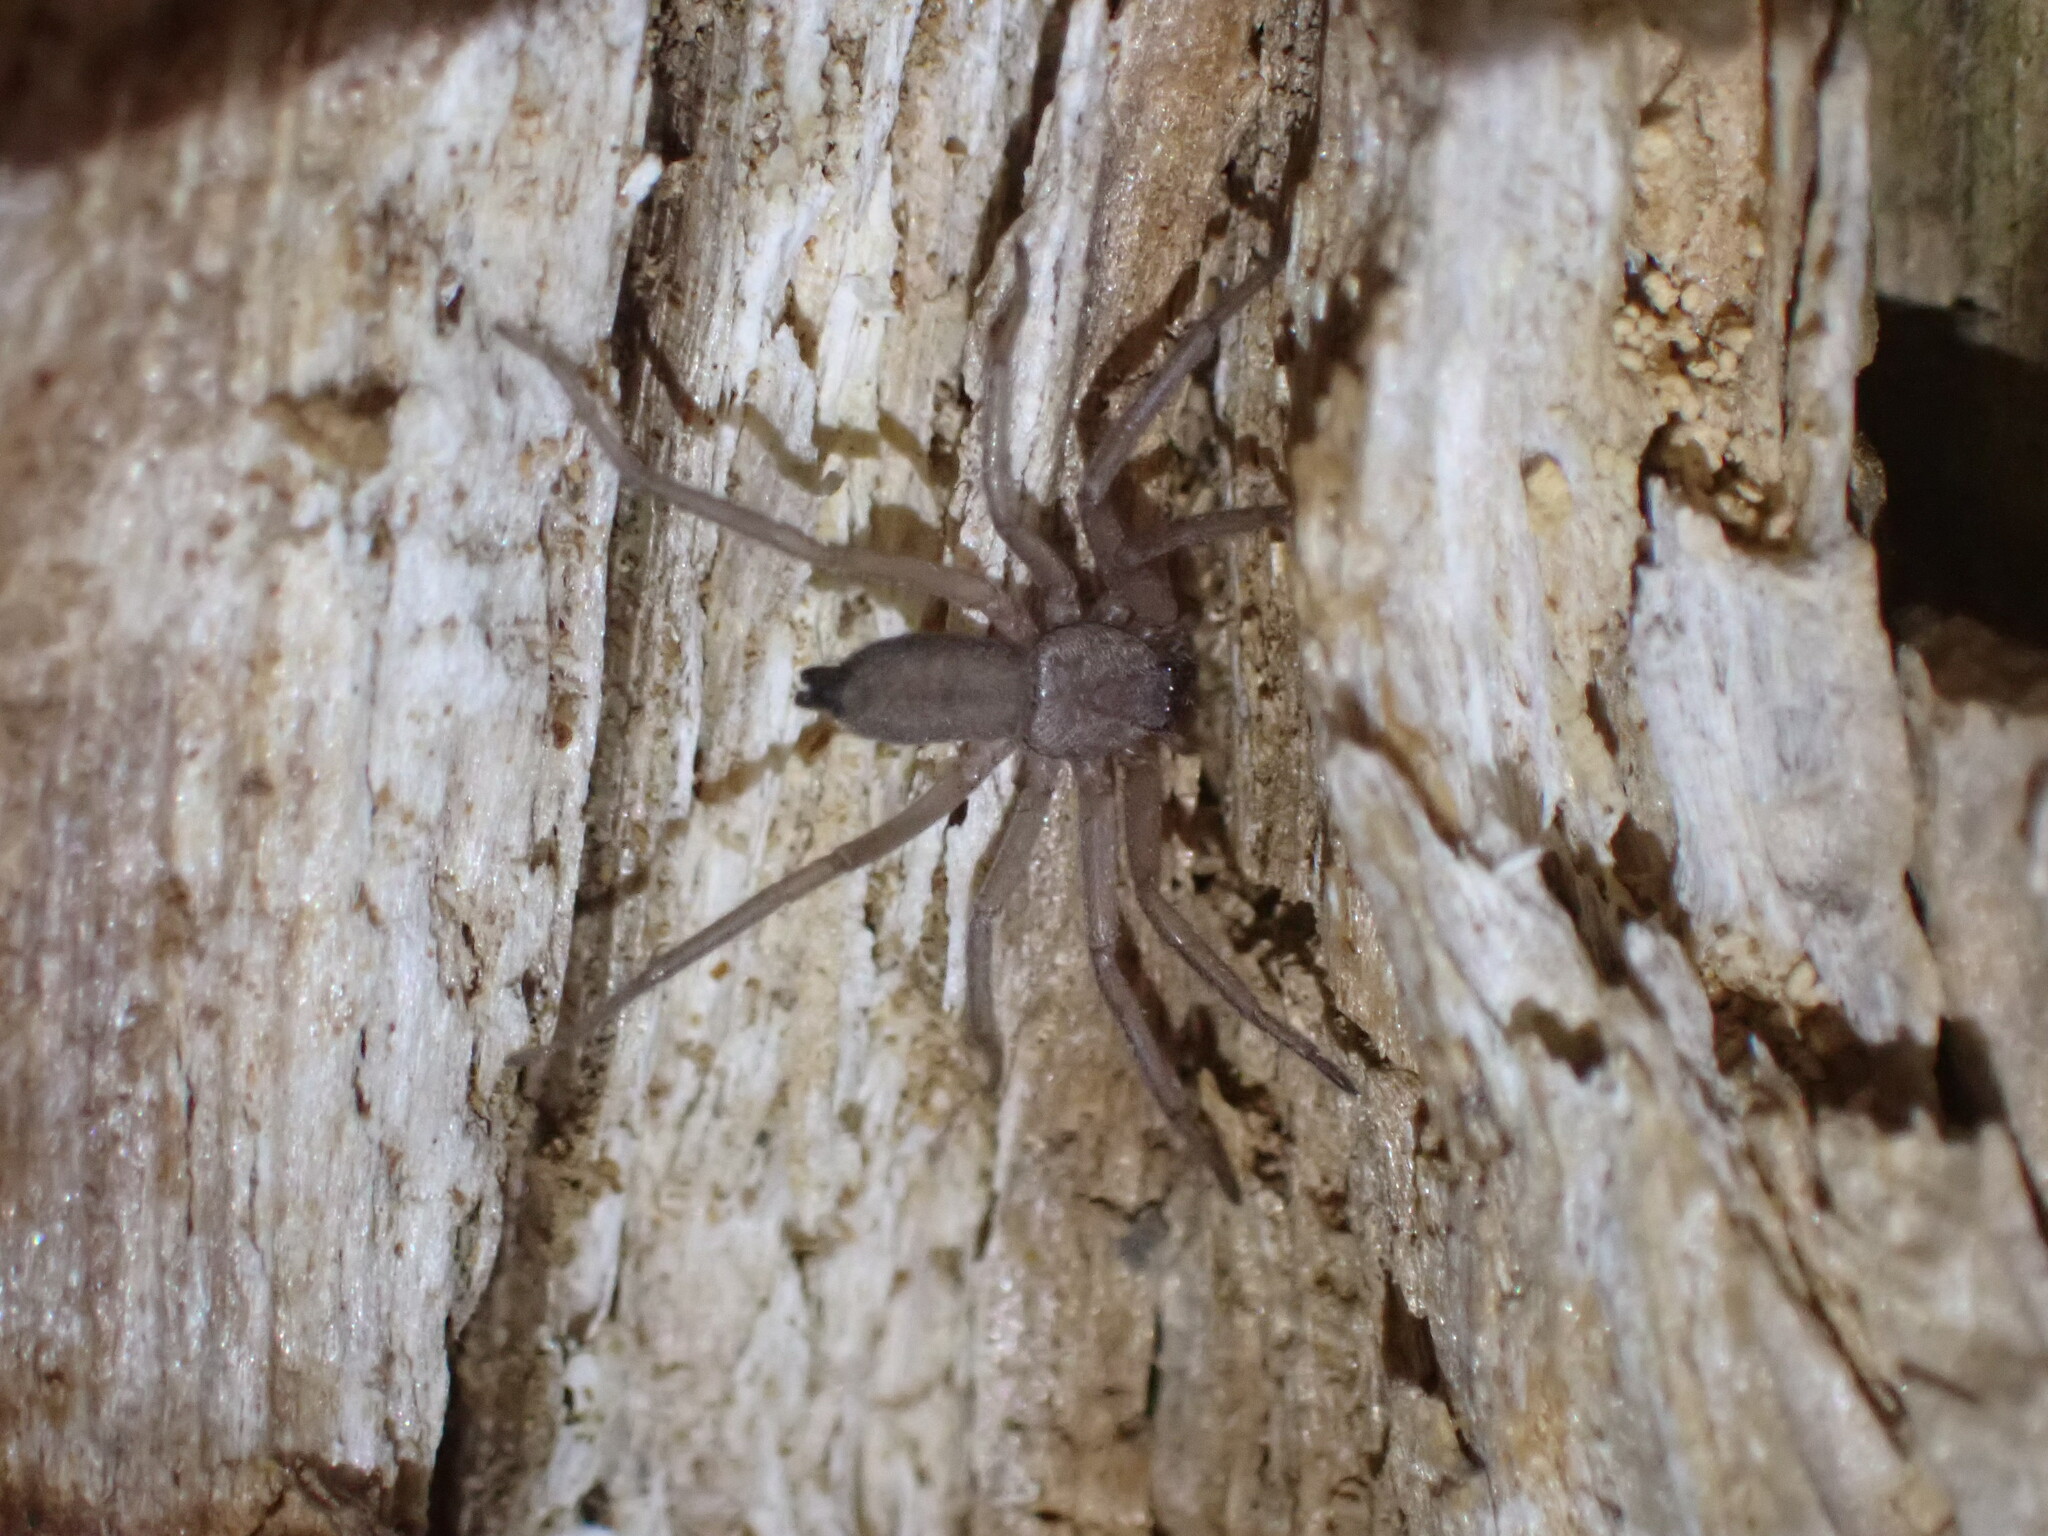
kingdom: Animalia
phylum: Arthropoda
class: Arachnida
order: Araneae
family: Trochanteriidae
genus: Hemicloea
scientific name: Hemicloea rogenhoferi
